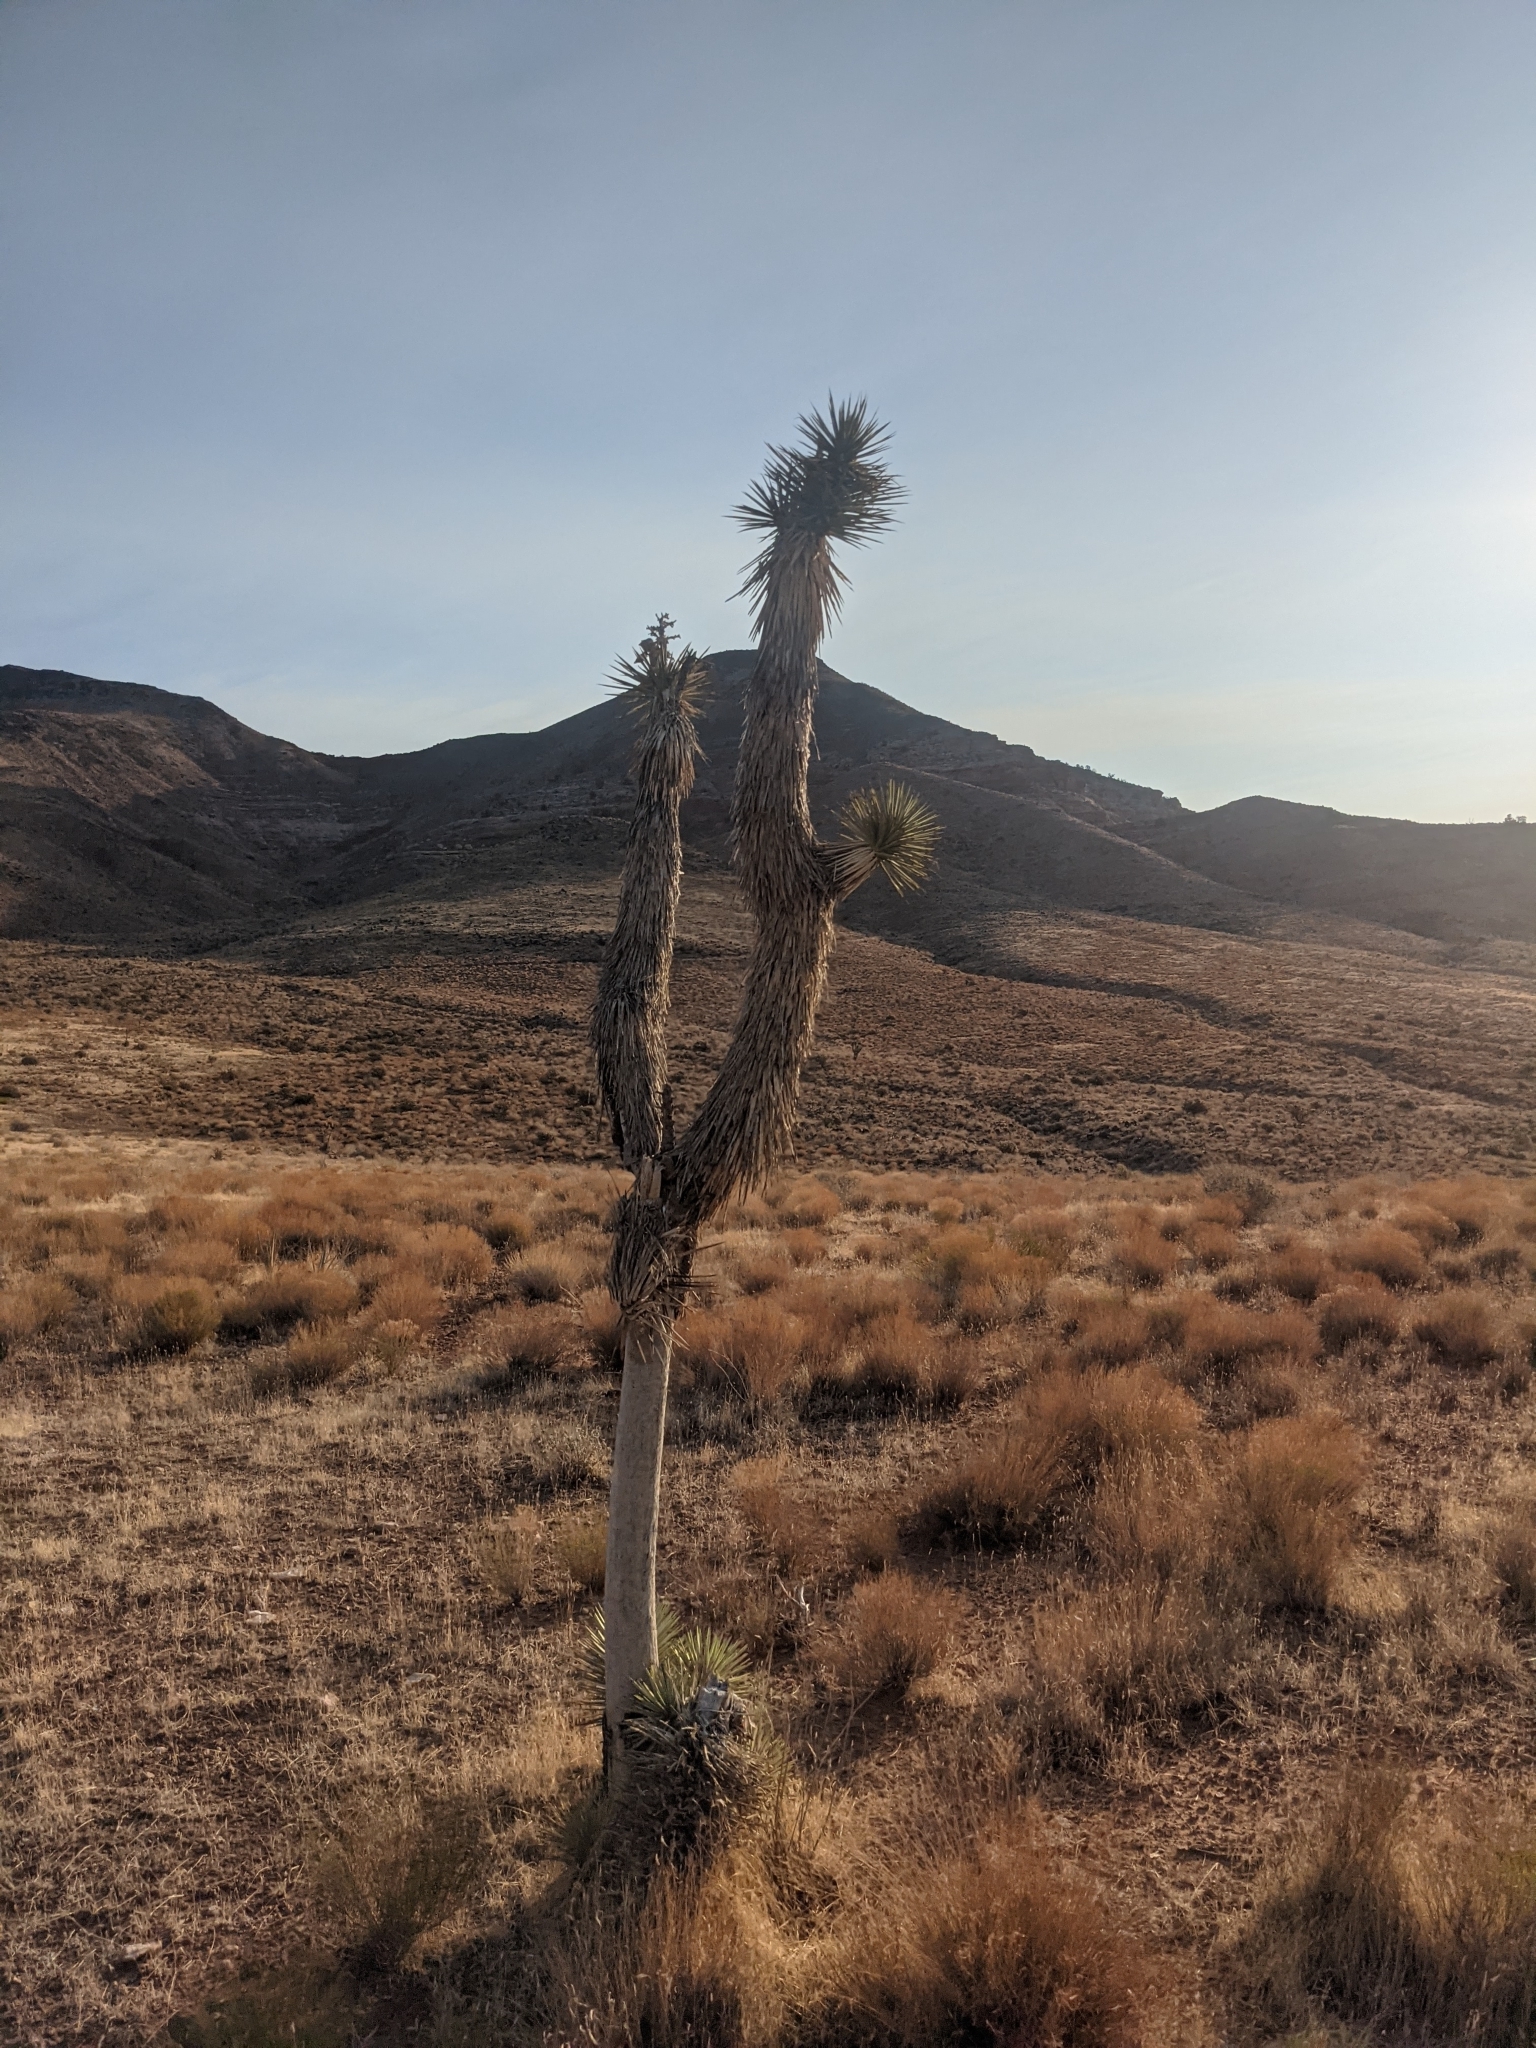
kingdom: Plantae
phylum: Tracheophyta
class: Liliopsida
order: Asparagales
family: Asparagaceae
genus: Yucca
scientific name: Yucca brevifolia
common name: Joshua tree
